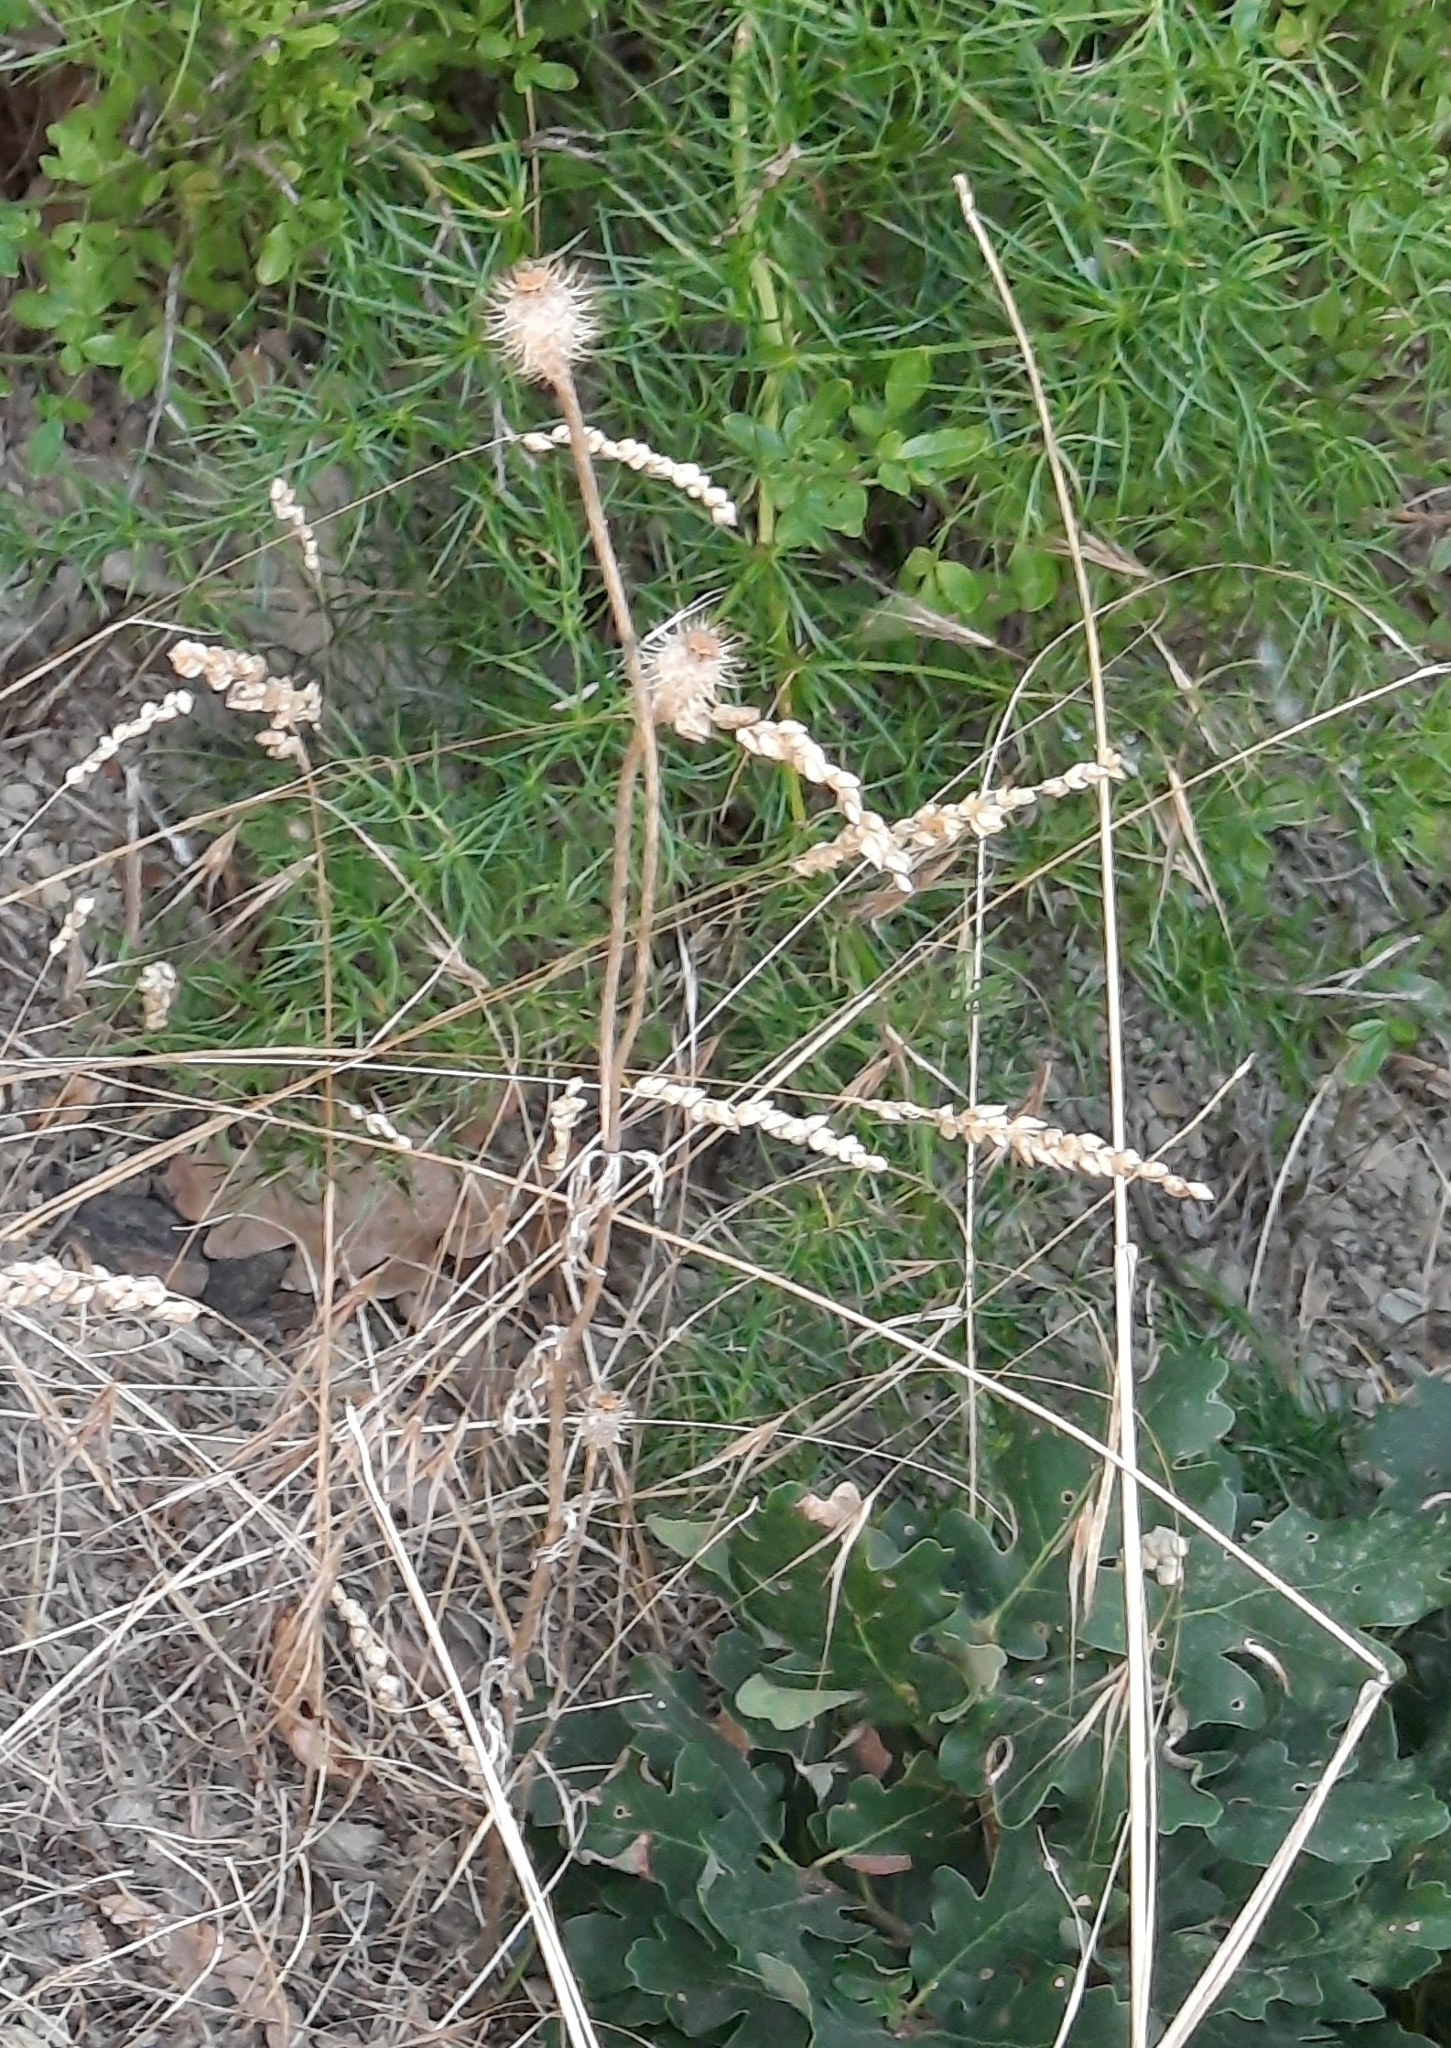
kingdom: Plantae
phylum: Tracheophyta
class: Magnoliopsida
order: Ranunculales
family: Papaveraceae
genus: Roemeria
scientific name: Roemeria hispida
